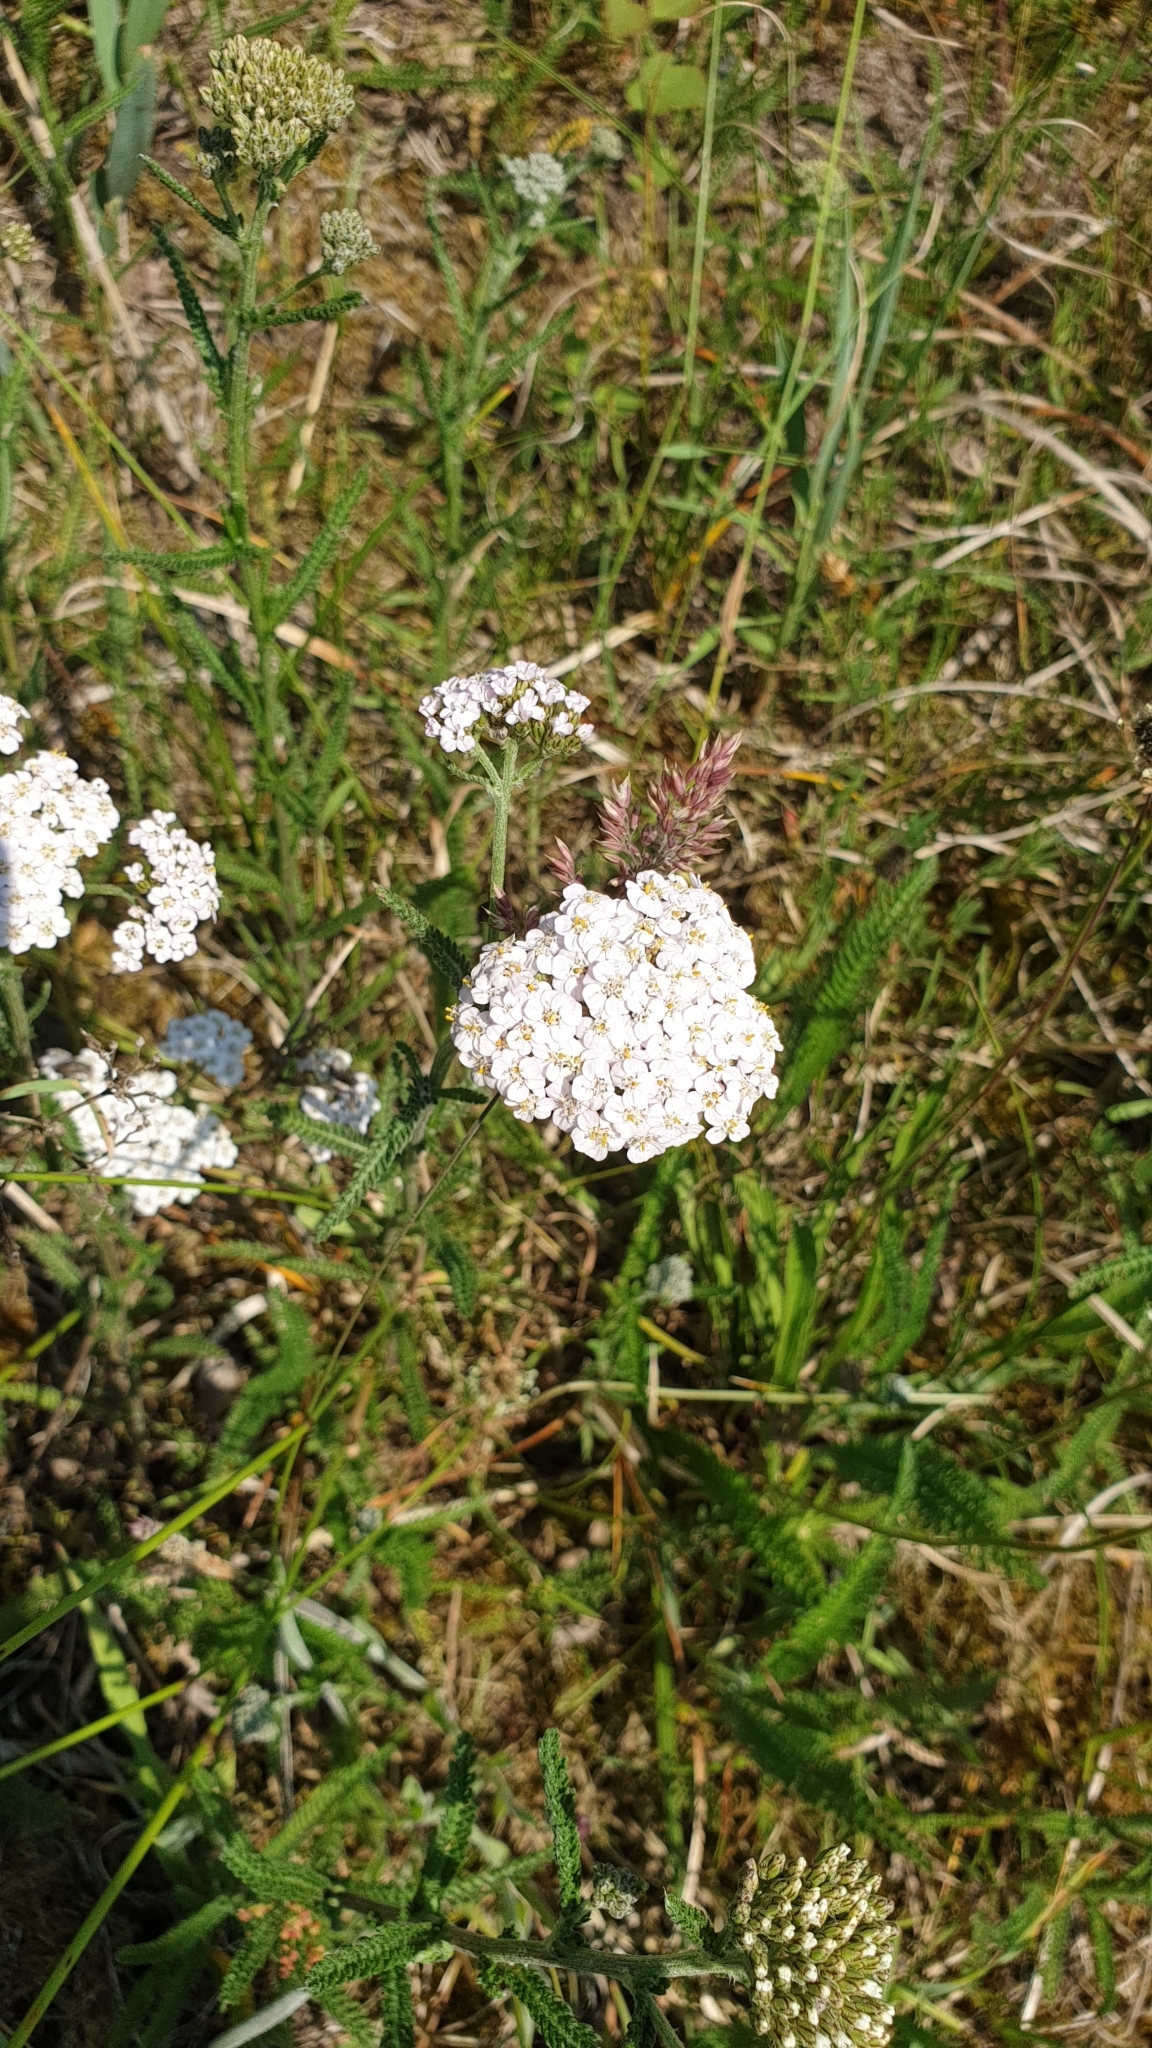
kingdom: Plantae
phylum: Tracheophyta
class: Magnoliopsida
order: Asterales
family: Asteraceae
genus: Achillea
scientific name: Achillea millefolium
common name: Yarrow
